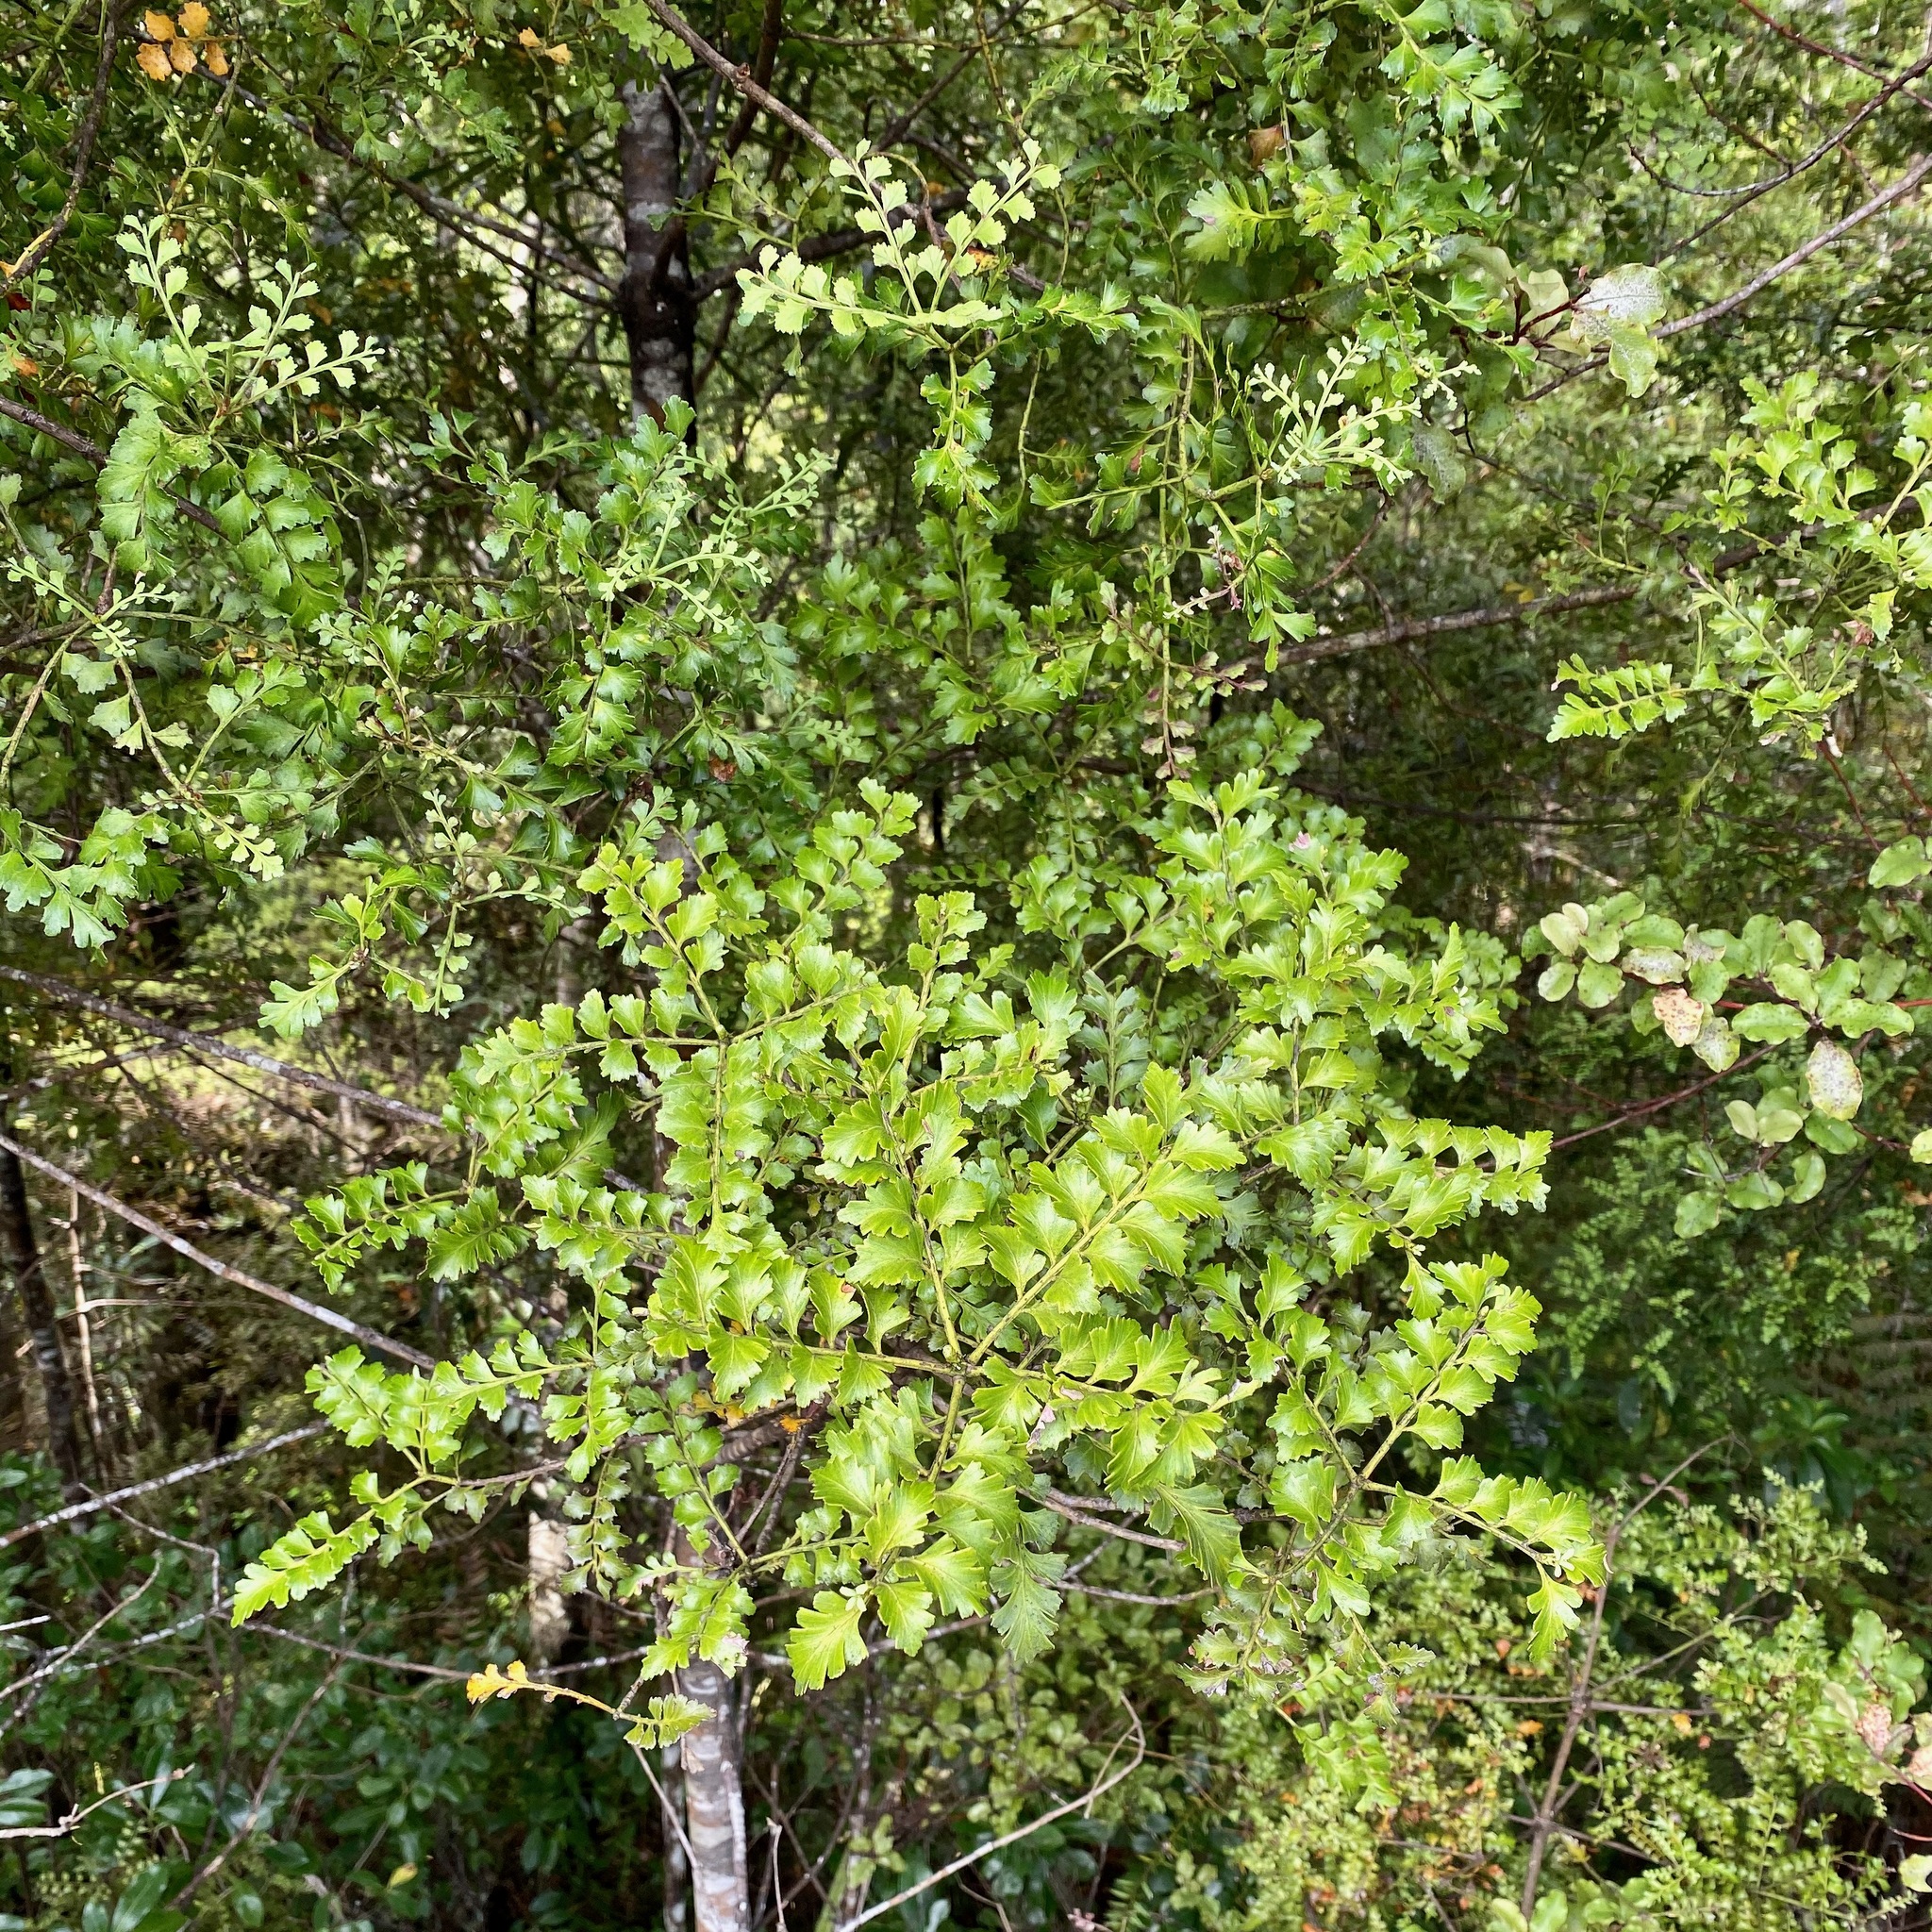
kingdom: Plantae
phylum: Tracheophyta
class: Pinopsida
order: Pinales
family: Phyllocladaceae
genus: Phyllocladus
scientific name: Phyllocladus trichomanoides
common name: Celery pine
